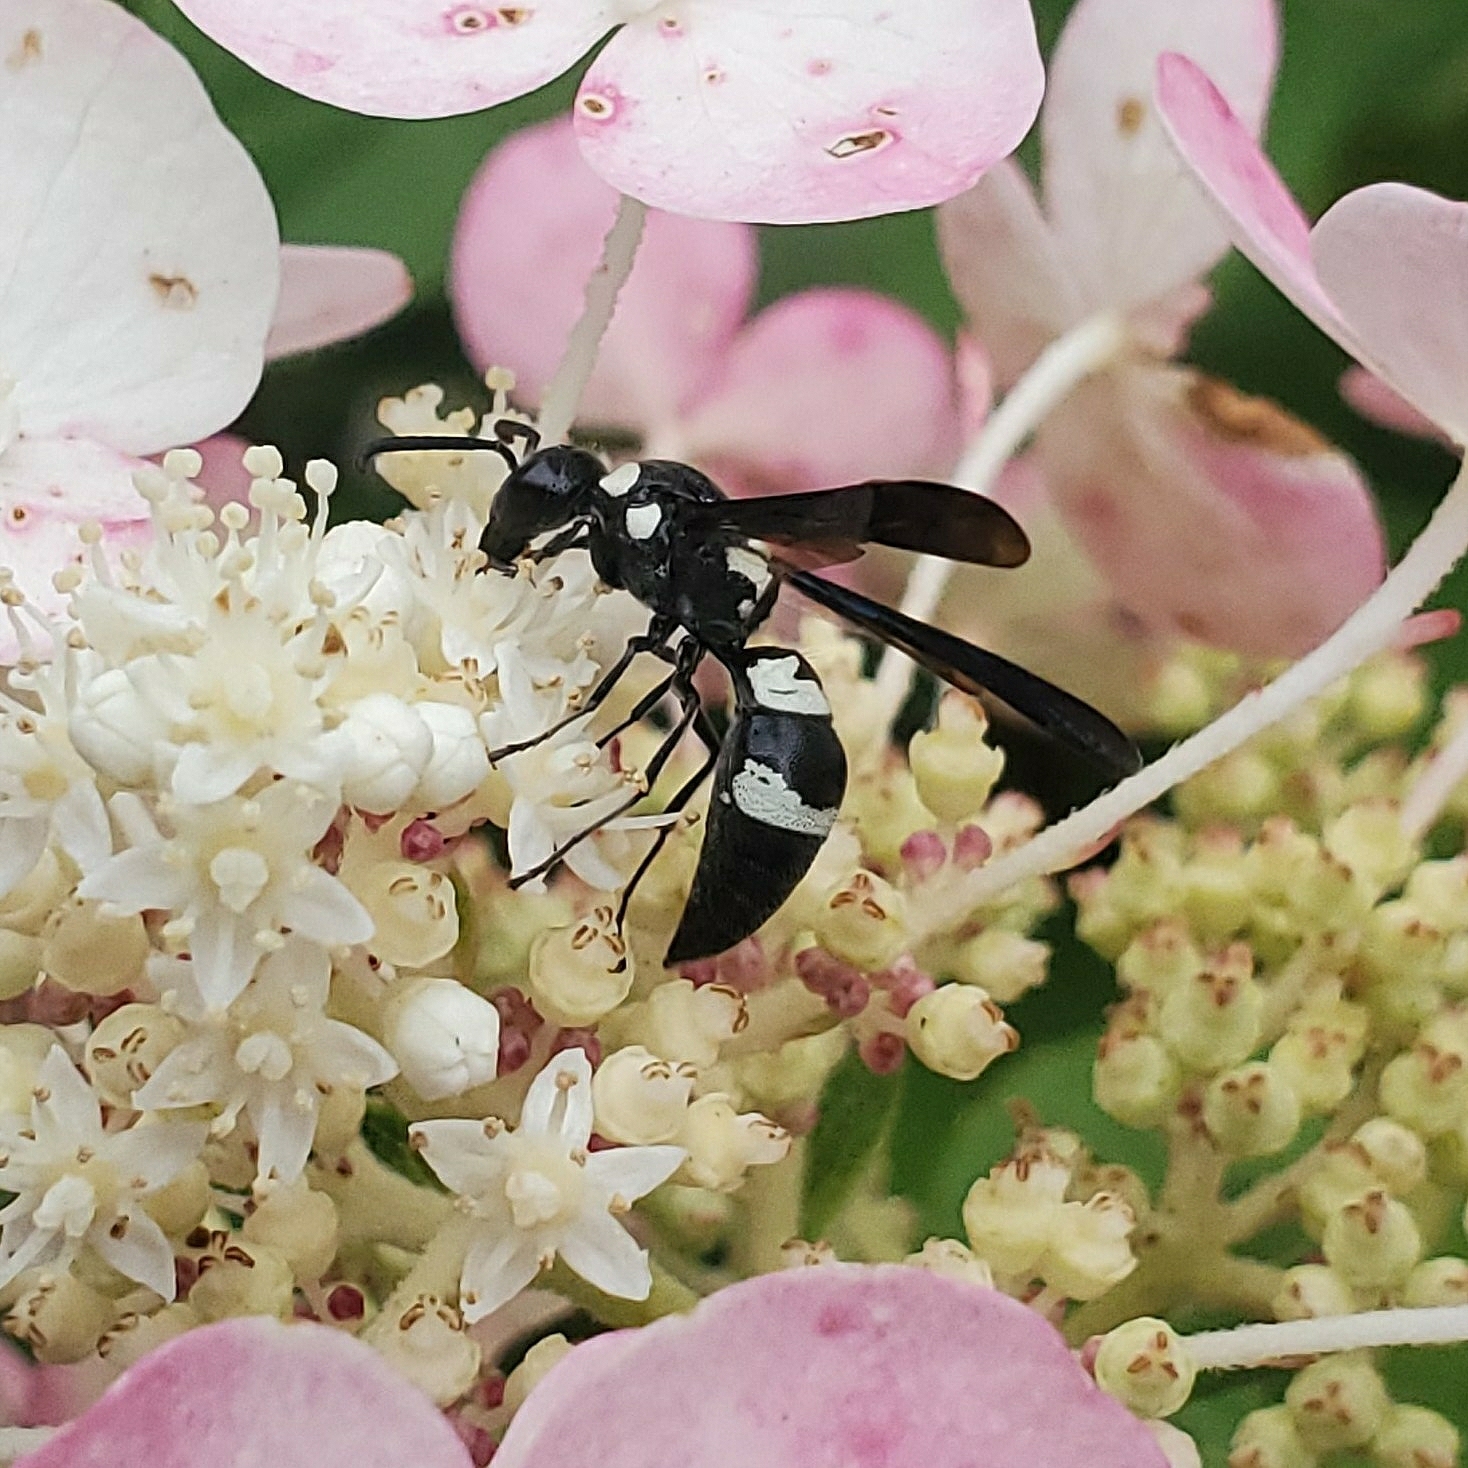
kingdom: Animalia
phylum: Arthropoda
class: Insecta
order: Hymenoptera
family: Eumenidae
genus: Pseudodynerus
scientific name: Pseudodynerus quadrisectus
